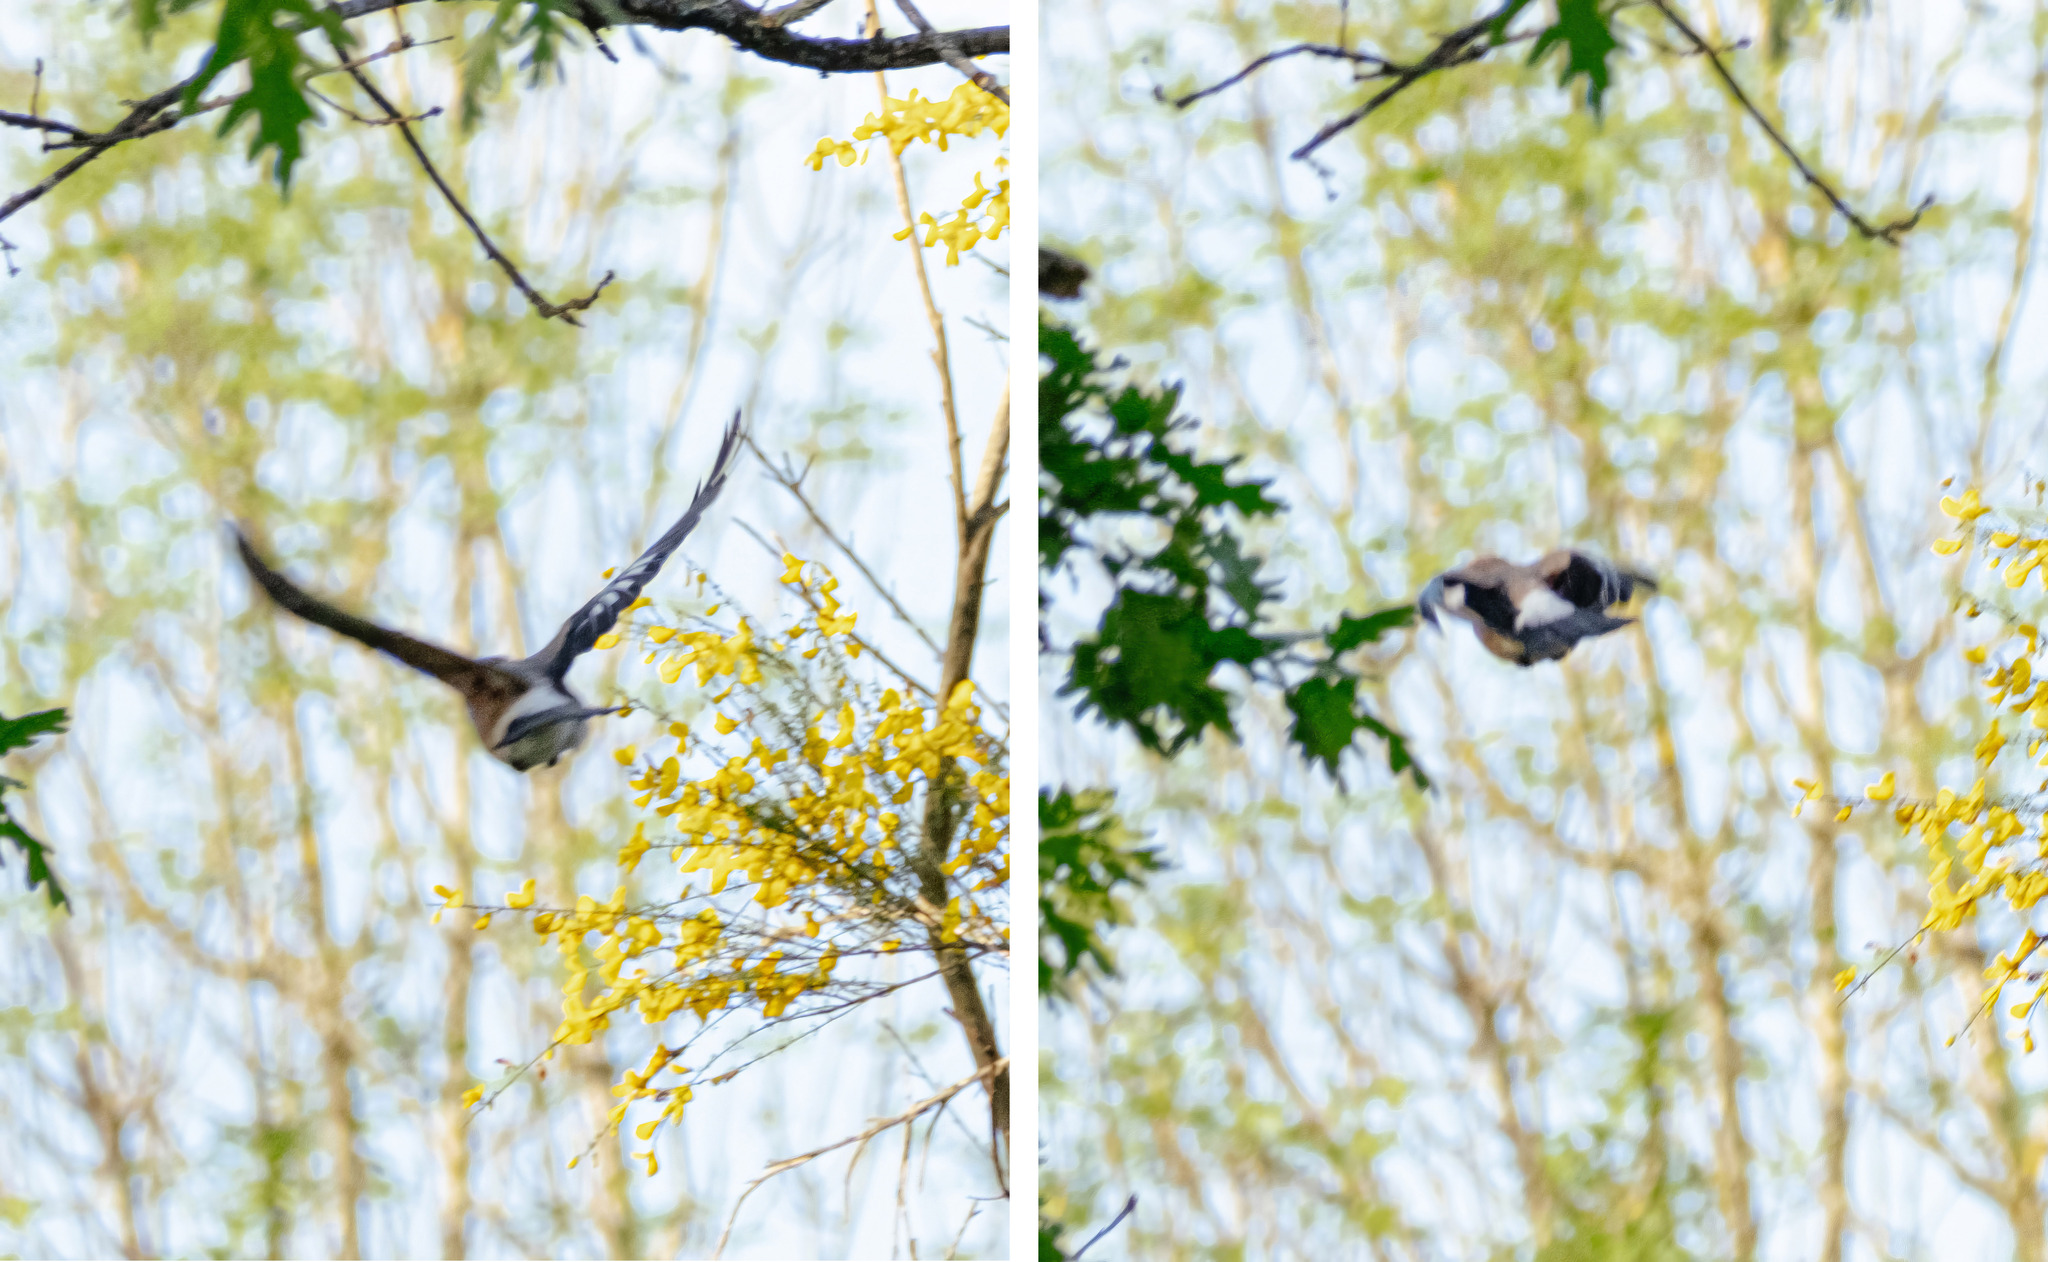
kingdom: Animalia
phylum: Chordata
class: Aves
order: Passeriformes
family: Corvidae
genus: Garrulus
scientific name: Garrulus glandarius
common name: Eurasian jay
